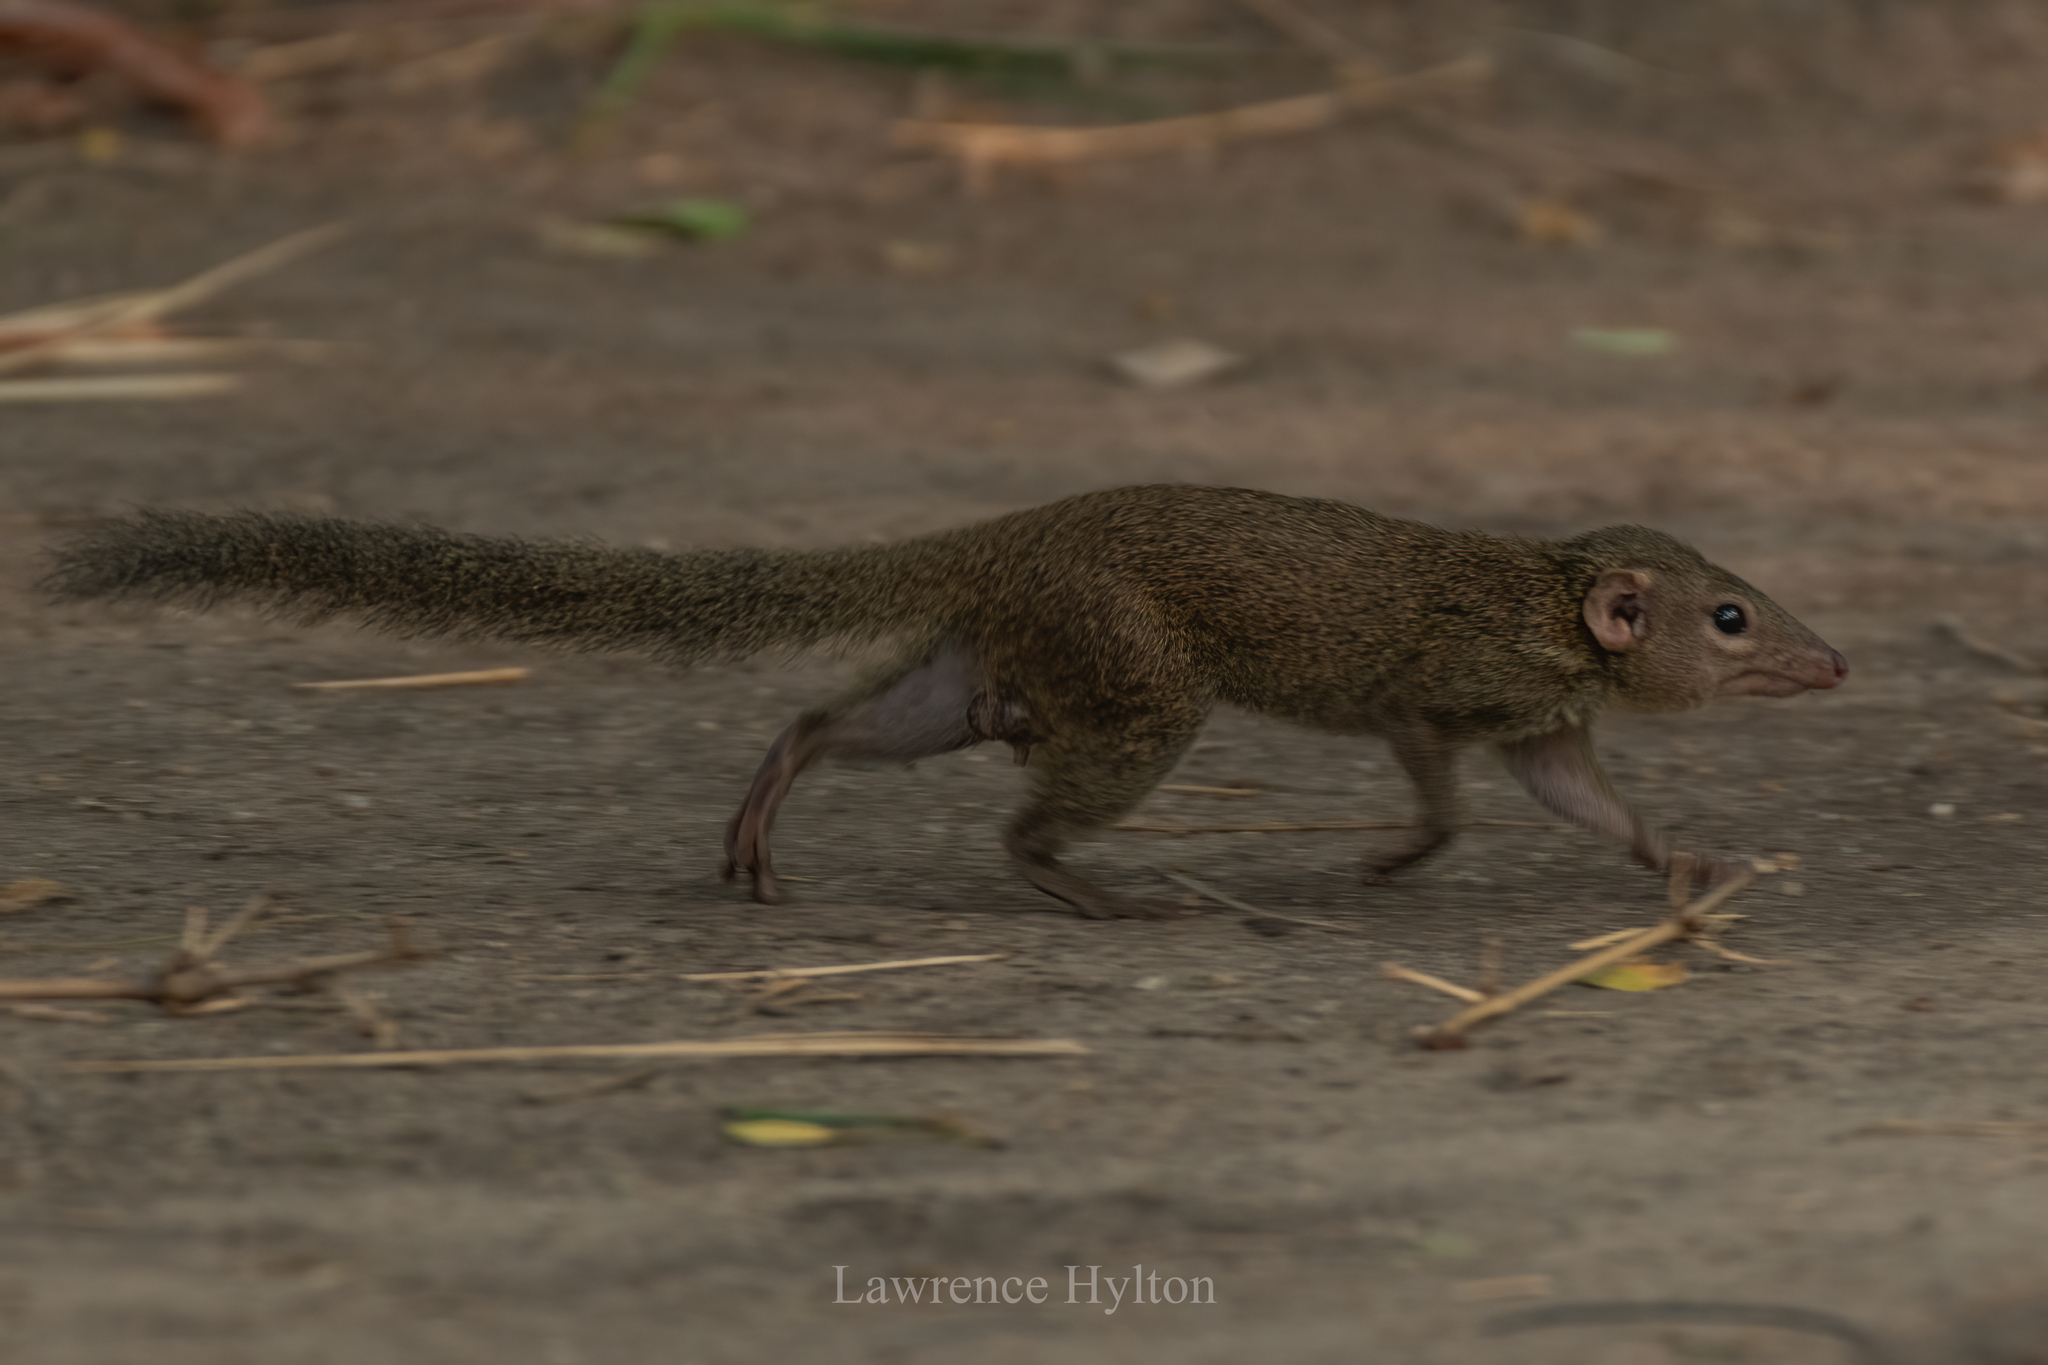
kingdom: Animalia
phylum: Chordata
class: Mammalia
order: Scandentia
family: Tupaiidae
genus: Tupaia
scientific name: Tupaia belangeri
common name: Northern treeshrew
